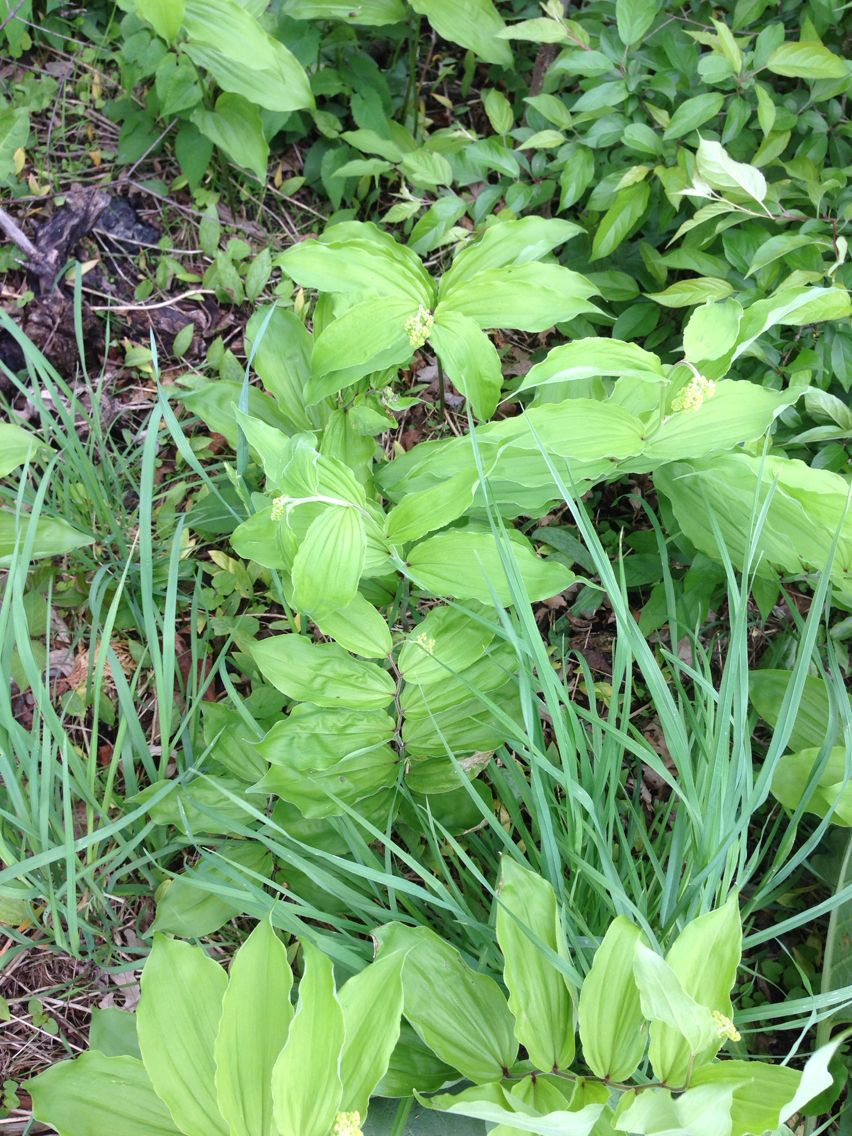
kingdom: Plantae
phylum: Tracheophyta
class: Liliopsida
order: Asparagales
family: Asparagaceae
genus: Maianthemum
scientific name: Maianthemum racemosum
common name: False spikenard
